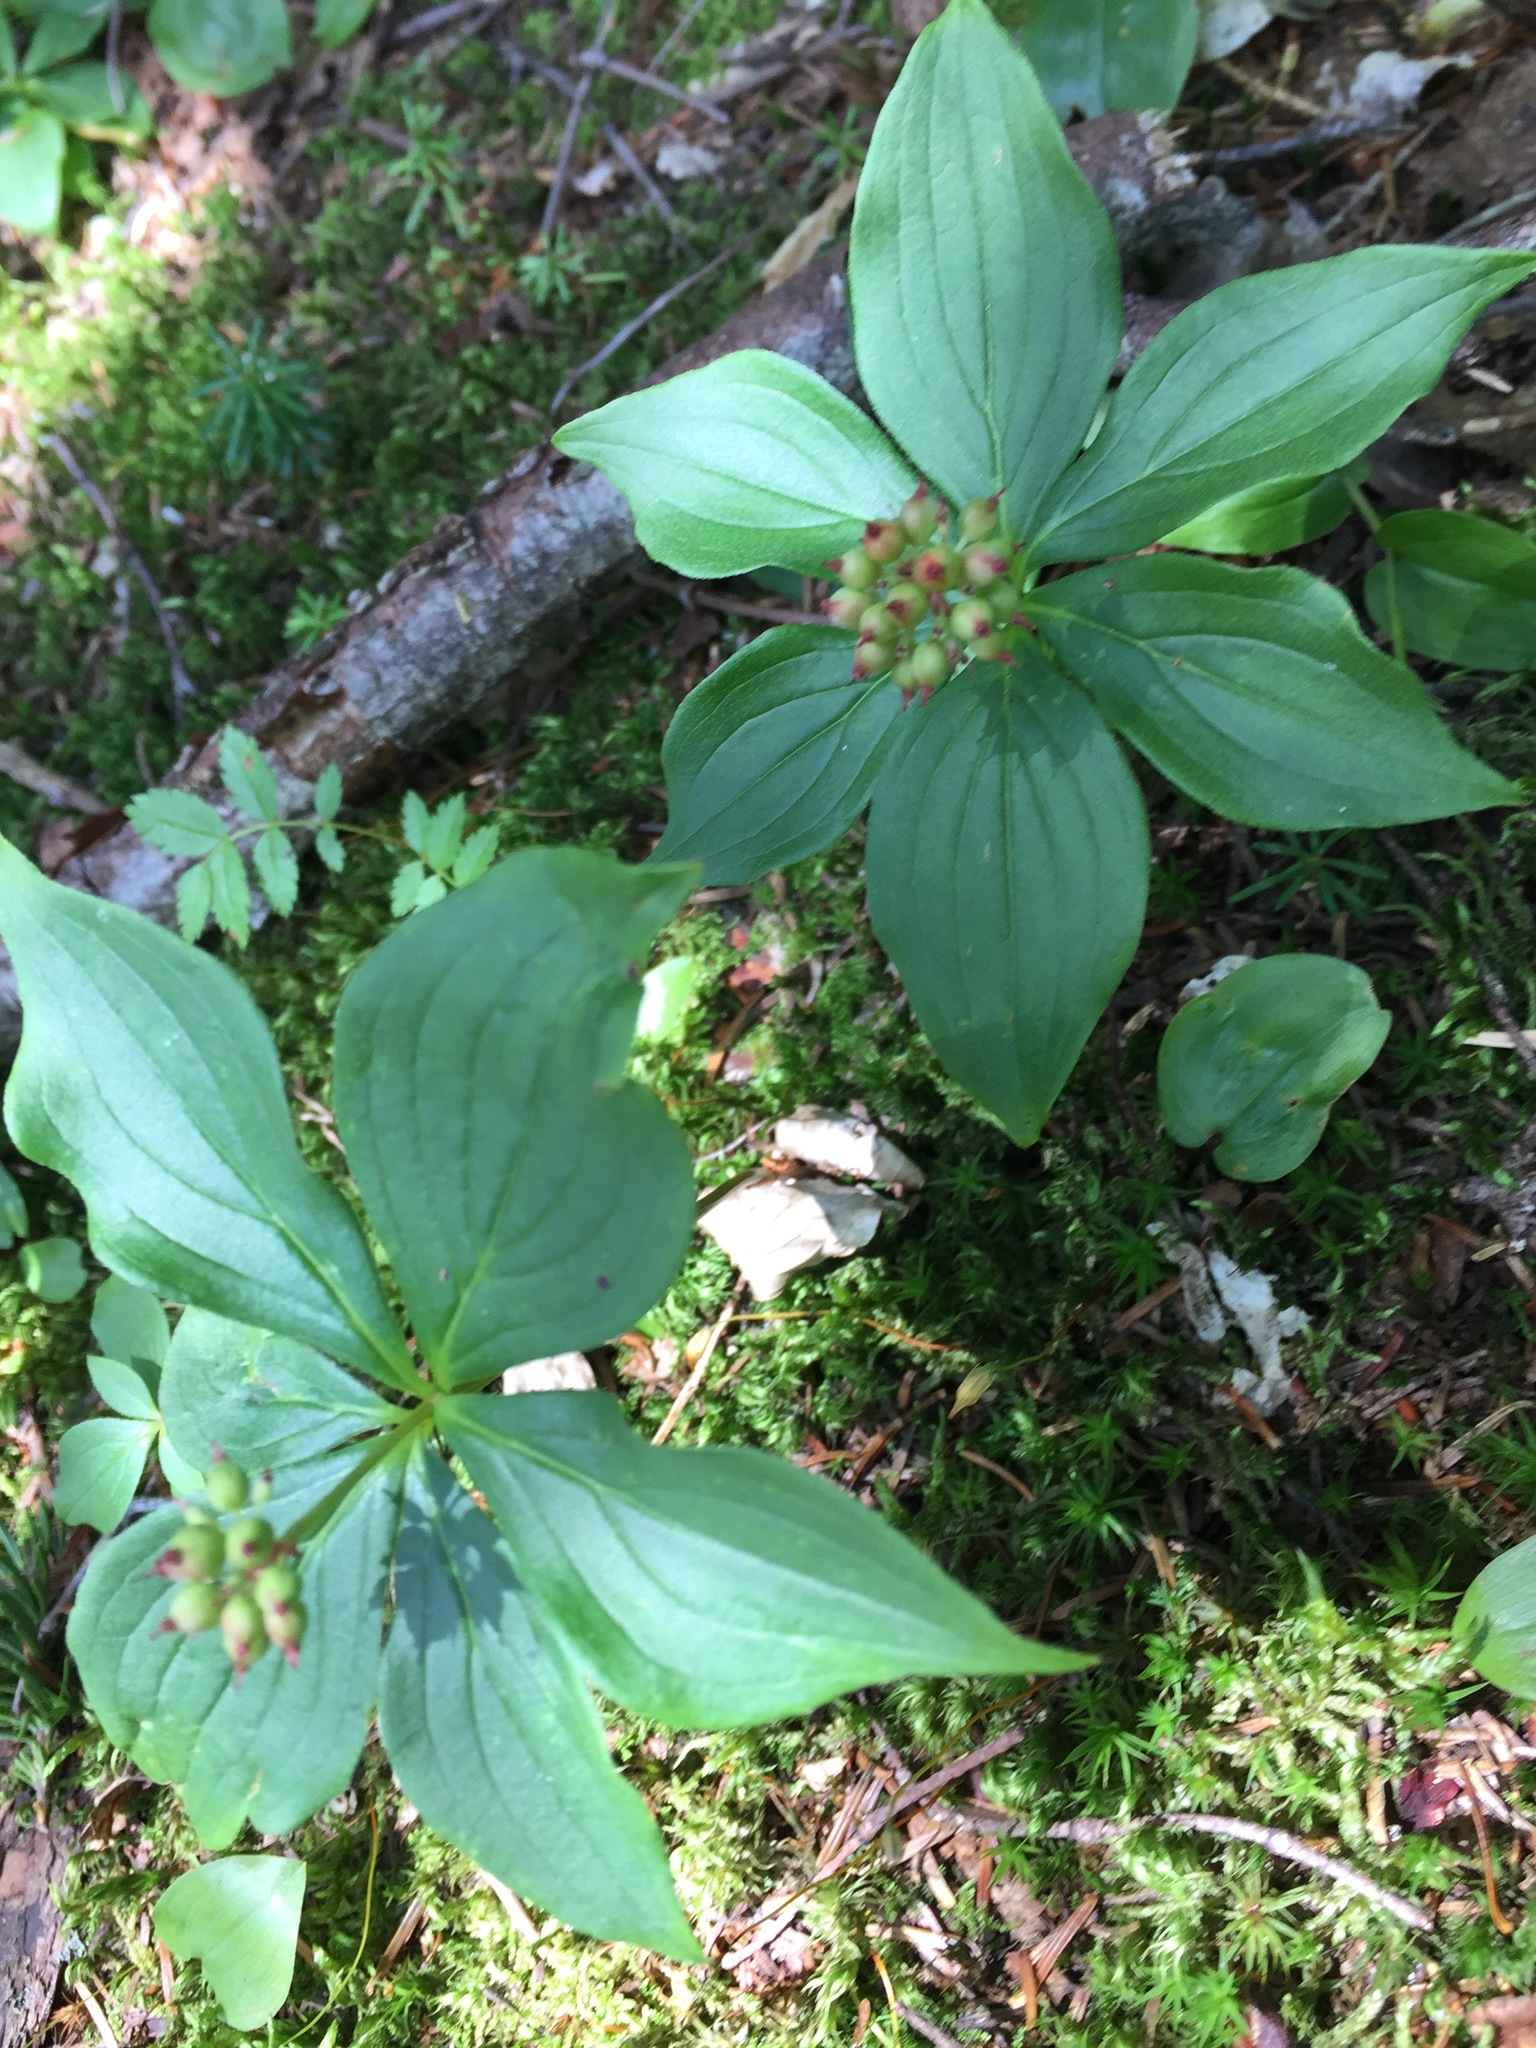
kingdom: Plantae
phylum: Tracheophyta
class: Magnoliopsida
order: Cornales
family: Cornaceae
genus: Cornus
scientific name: Cornus canadensis
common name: Creeping dogwood
